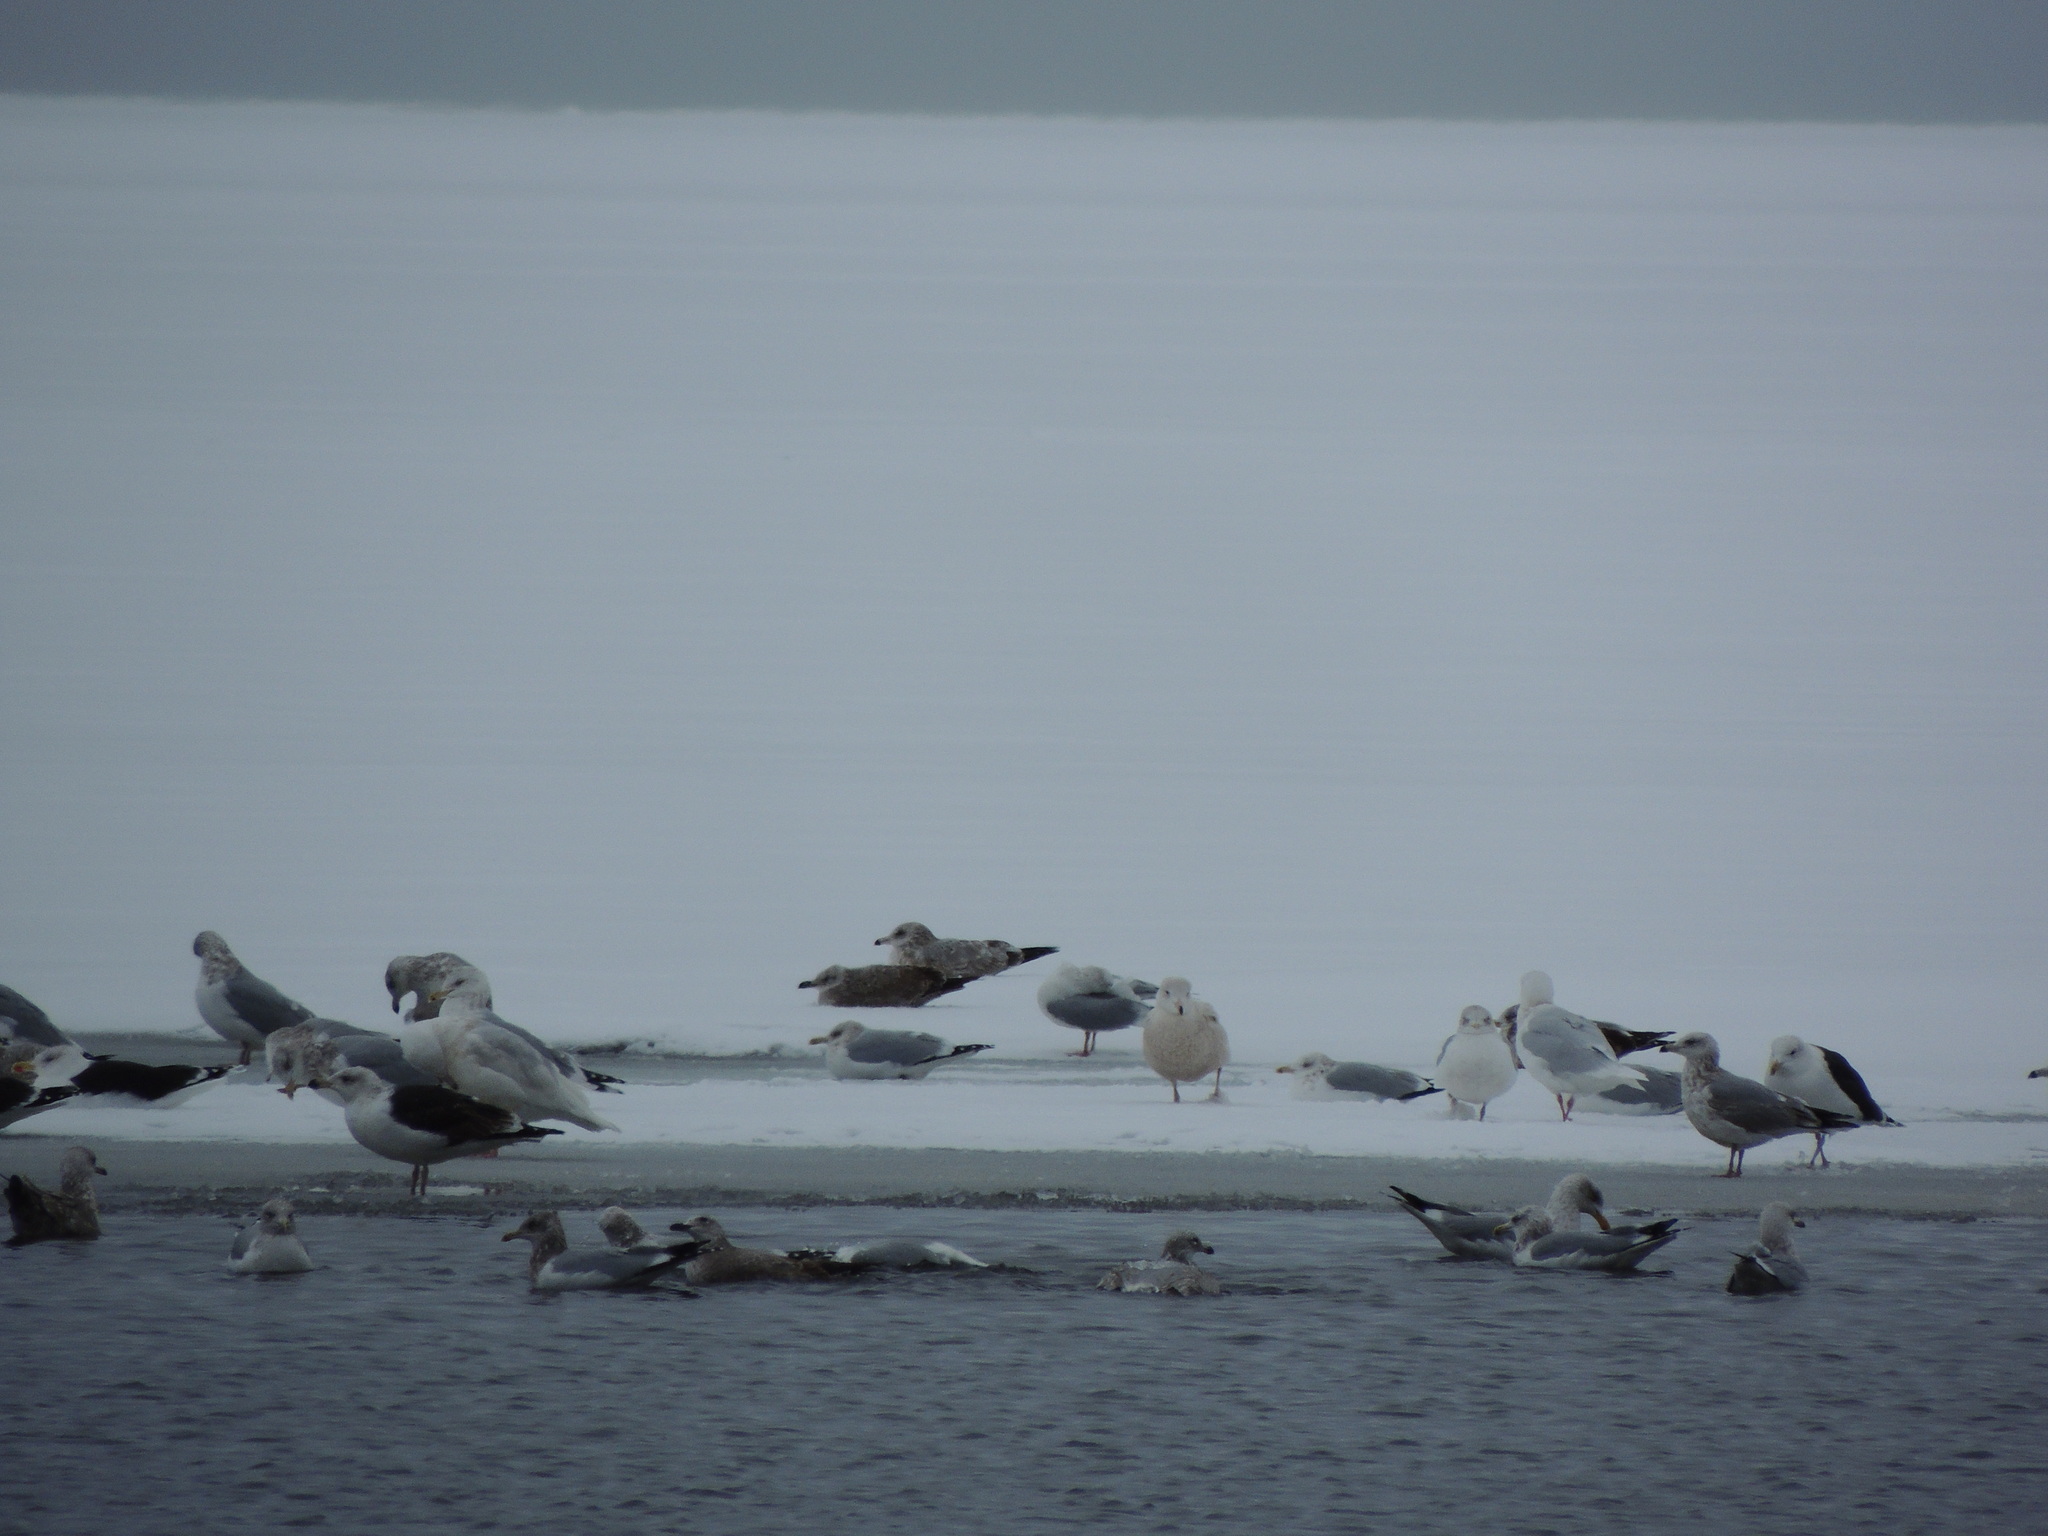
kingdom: Animalia
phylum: Chordata
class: Aves
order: Charadriiformes
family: Laridae
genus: Larus
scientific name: Larus glaucoides
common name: Iceland gull
